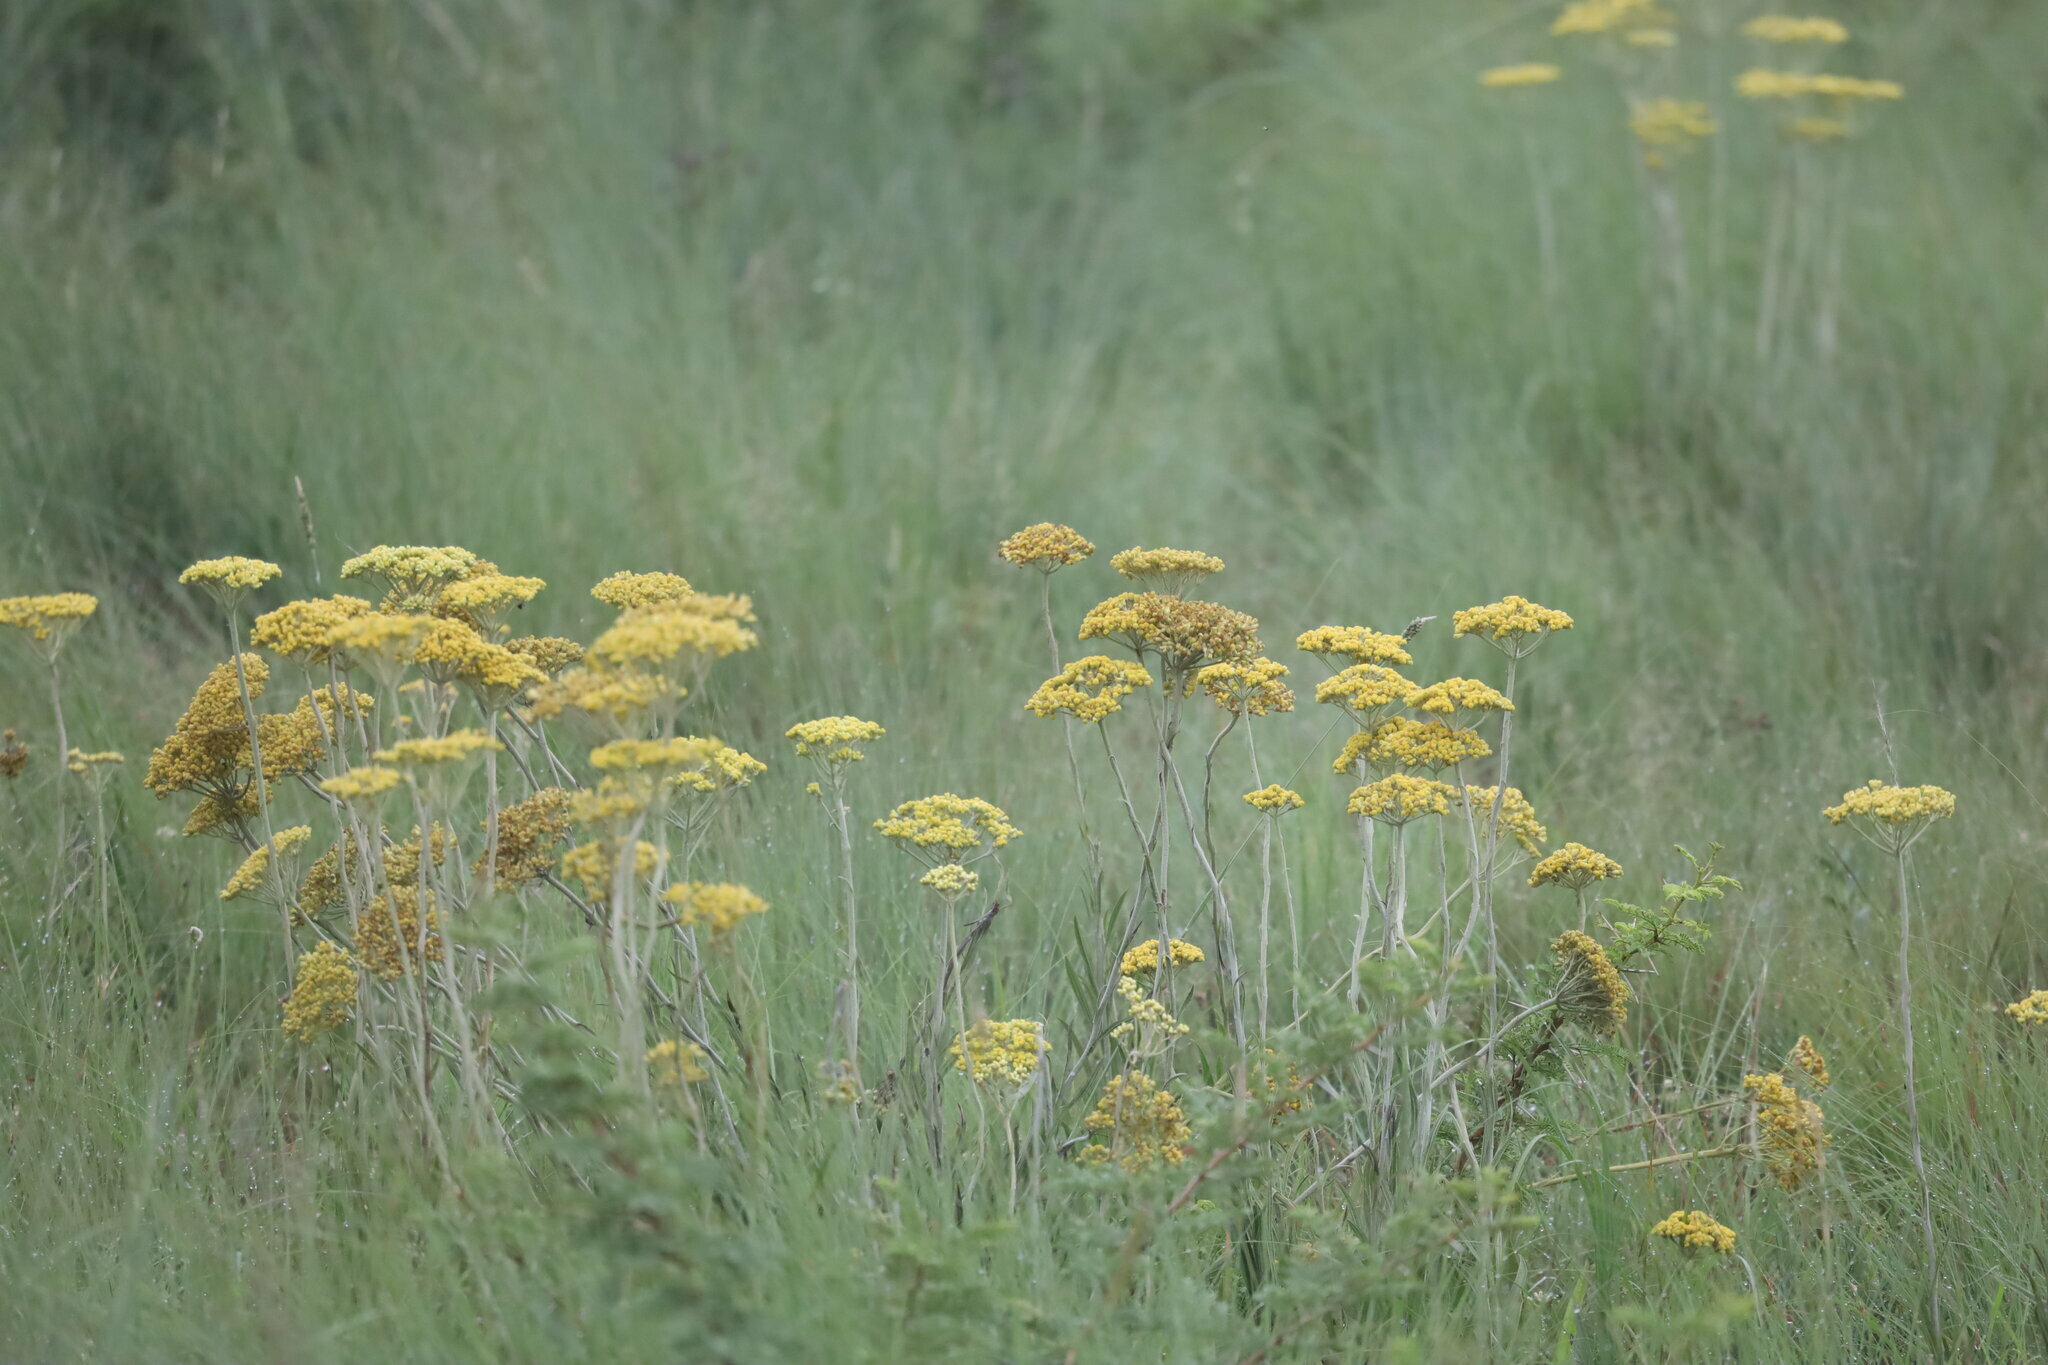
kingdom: Plantae
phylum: Tracheophyta
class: Magnoliopsida
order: Asterales
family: Asteraceae
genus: Helichrysum
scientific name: Helichrysum nudifolium
